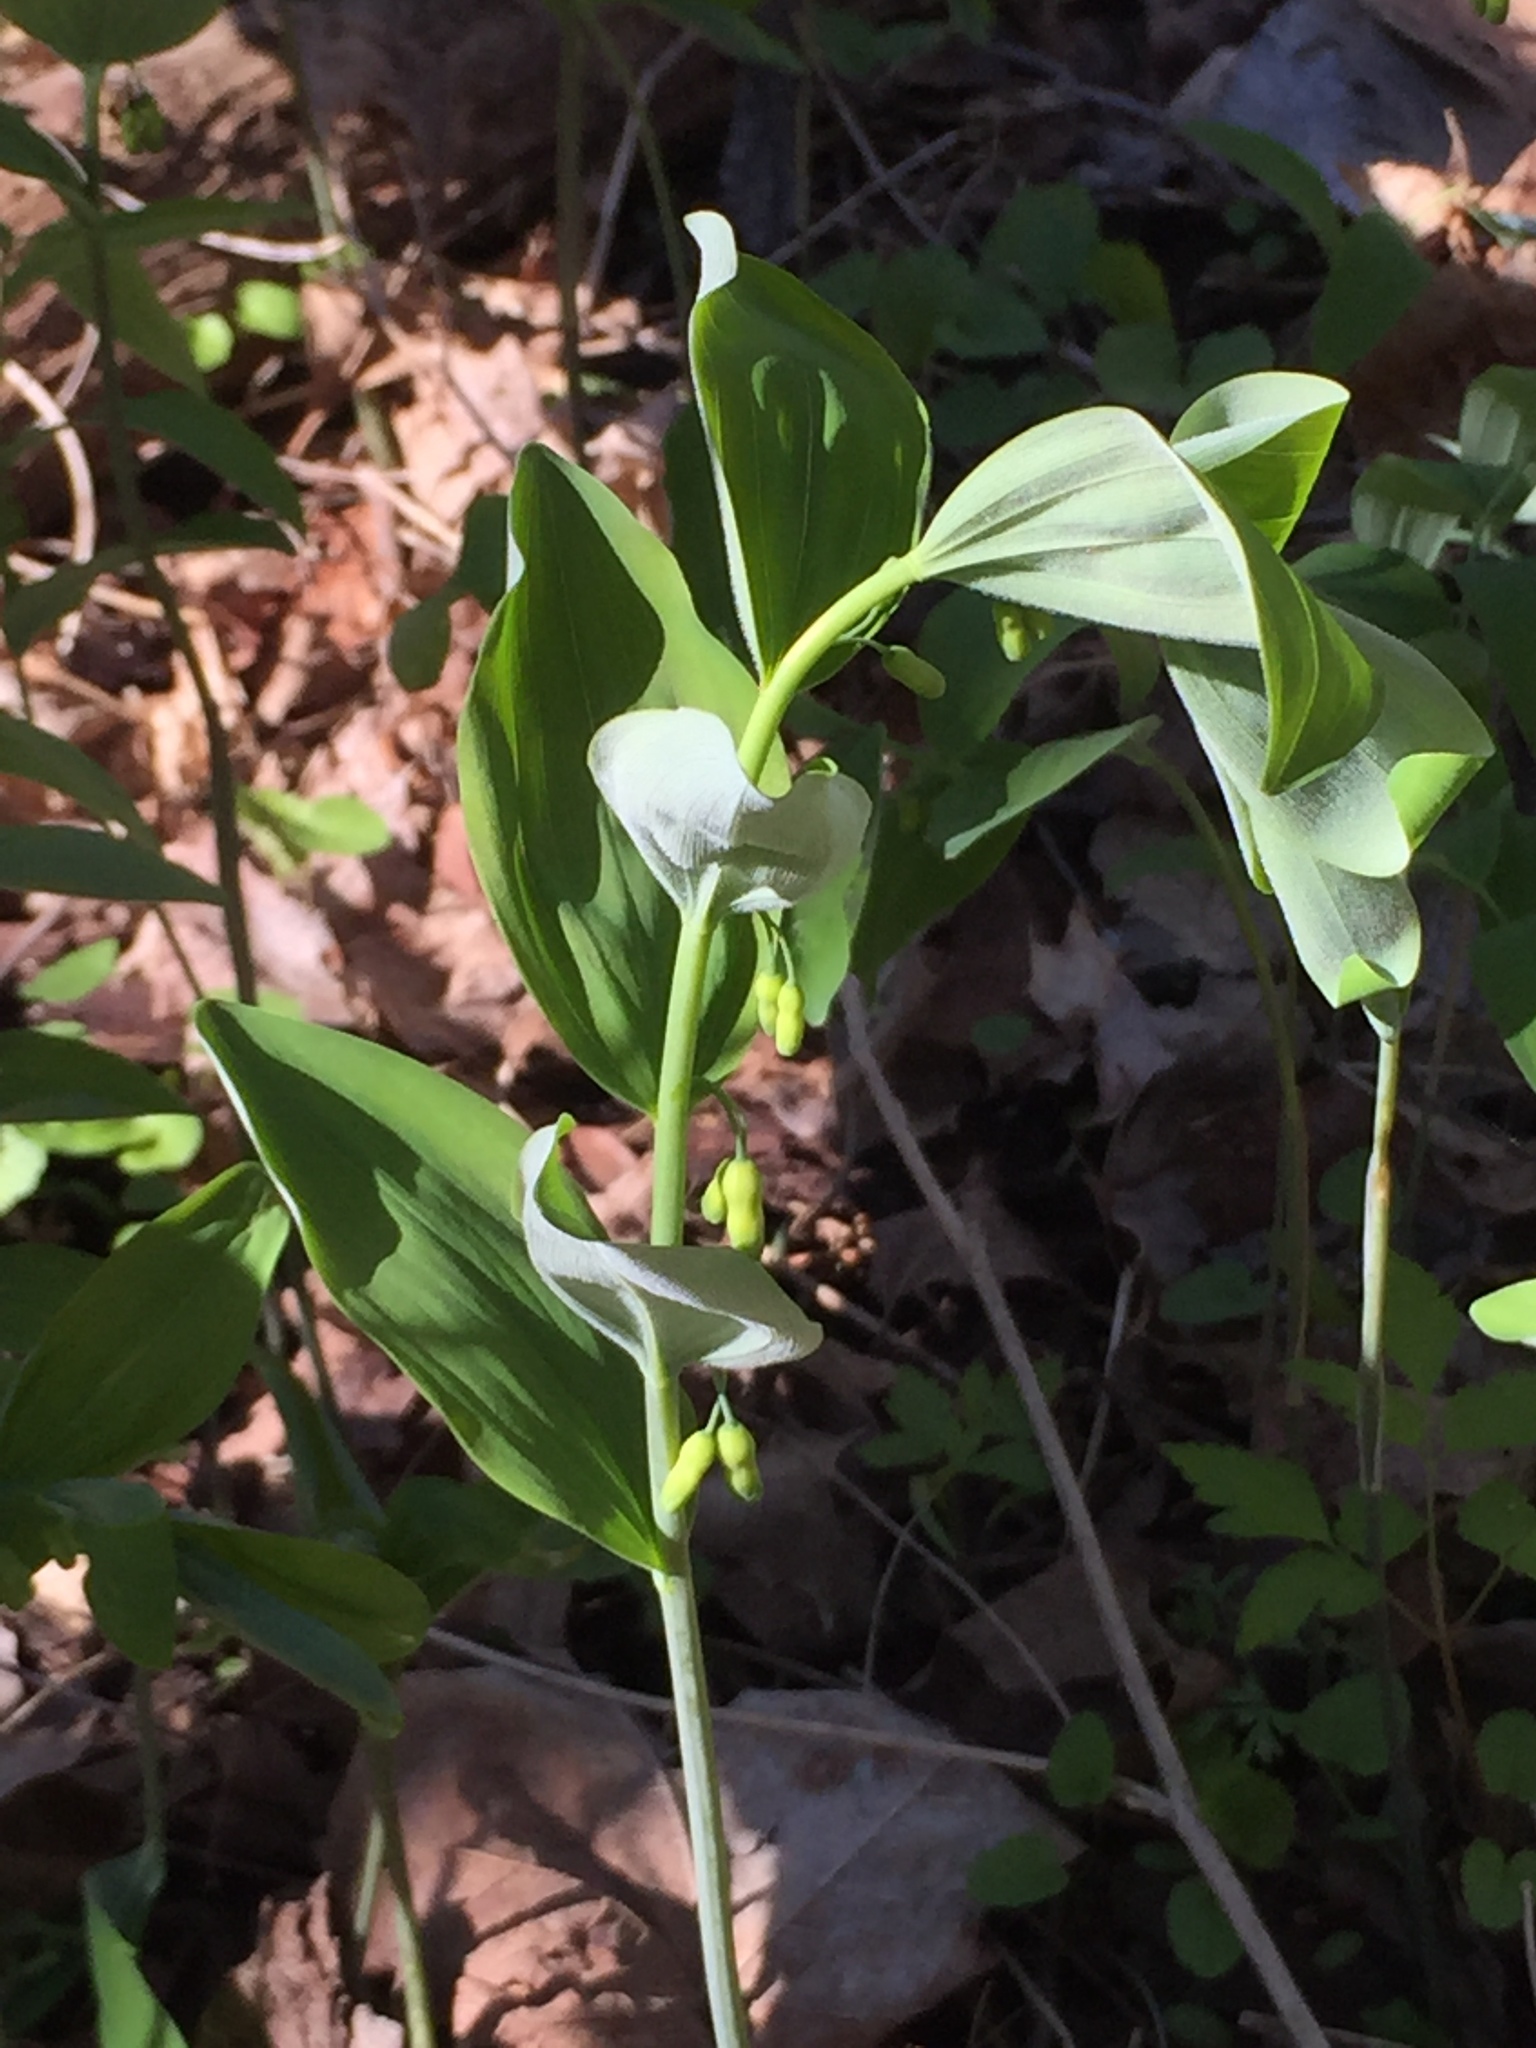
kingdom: Plantae
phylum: Tracheophyta
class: Liliopsida
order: Asparagales
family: Asparagaceae
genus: Polygonatum
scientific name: Polygonatum pubescens
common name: Downy solomon's seal
